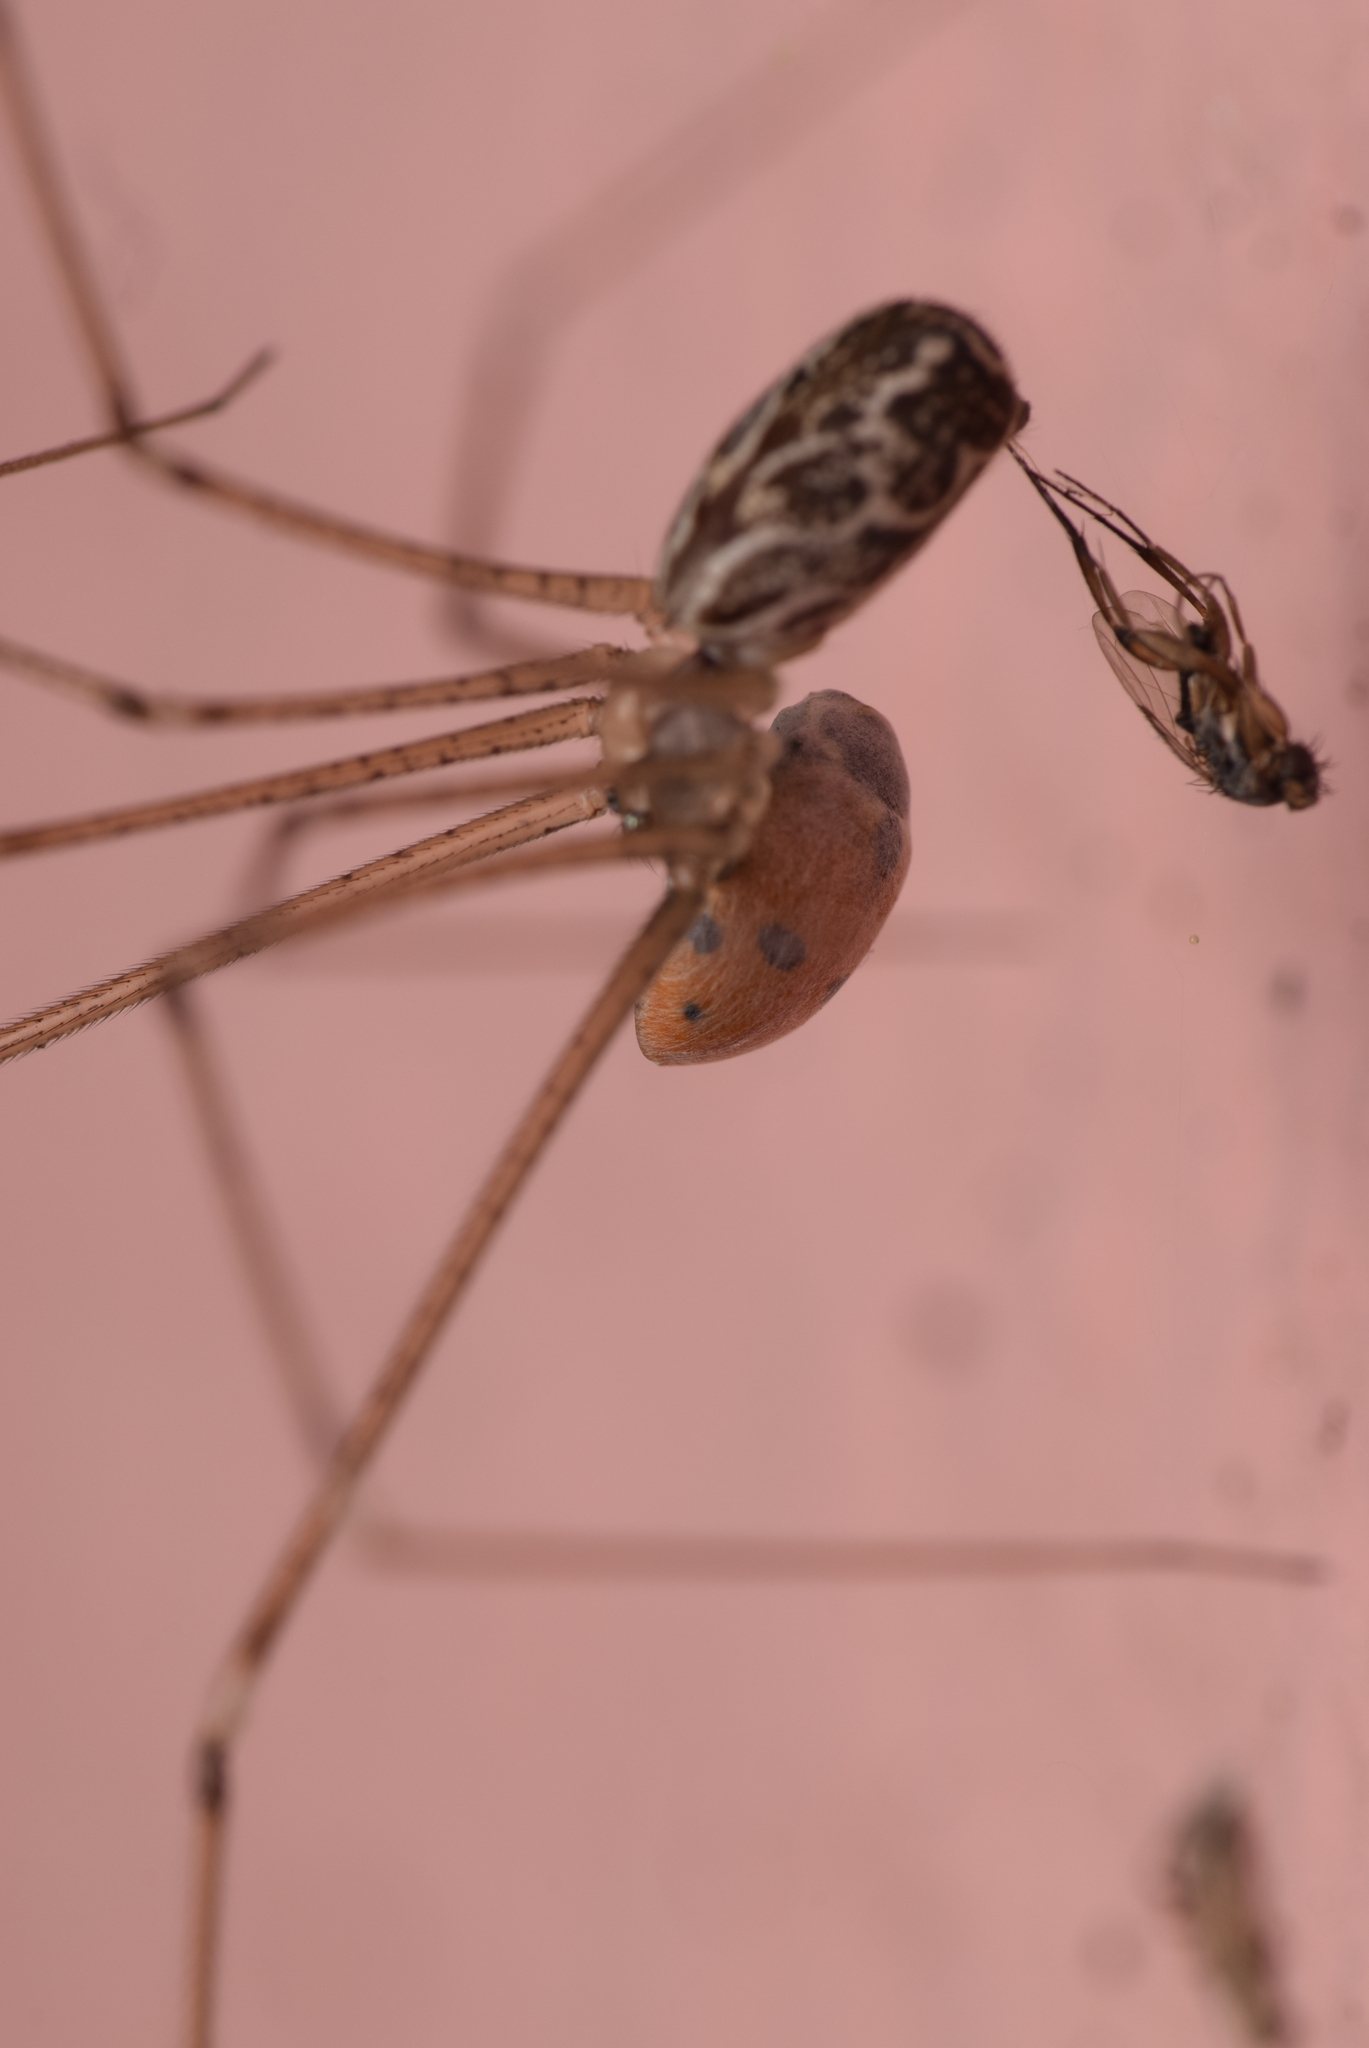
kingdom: Animalia
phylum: Arthropoda
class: Arachnida
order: Araneae
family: Pholcidae
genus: Holocnemus
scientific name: Holocnemus pluchei
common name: Marbled cellar spider
